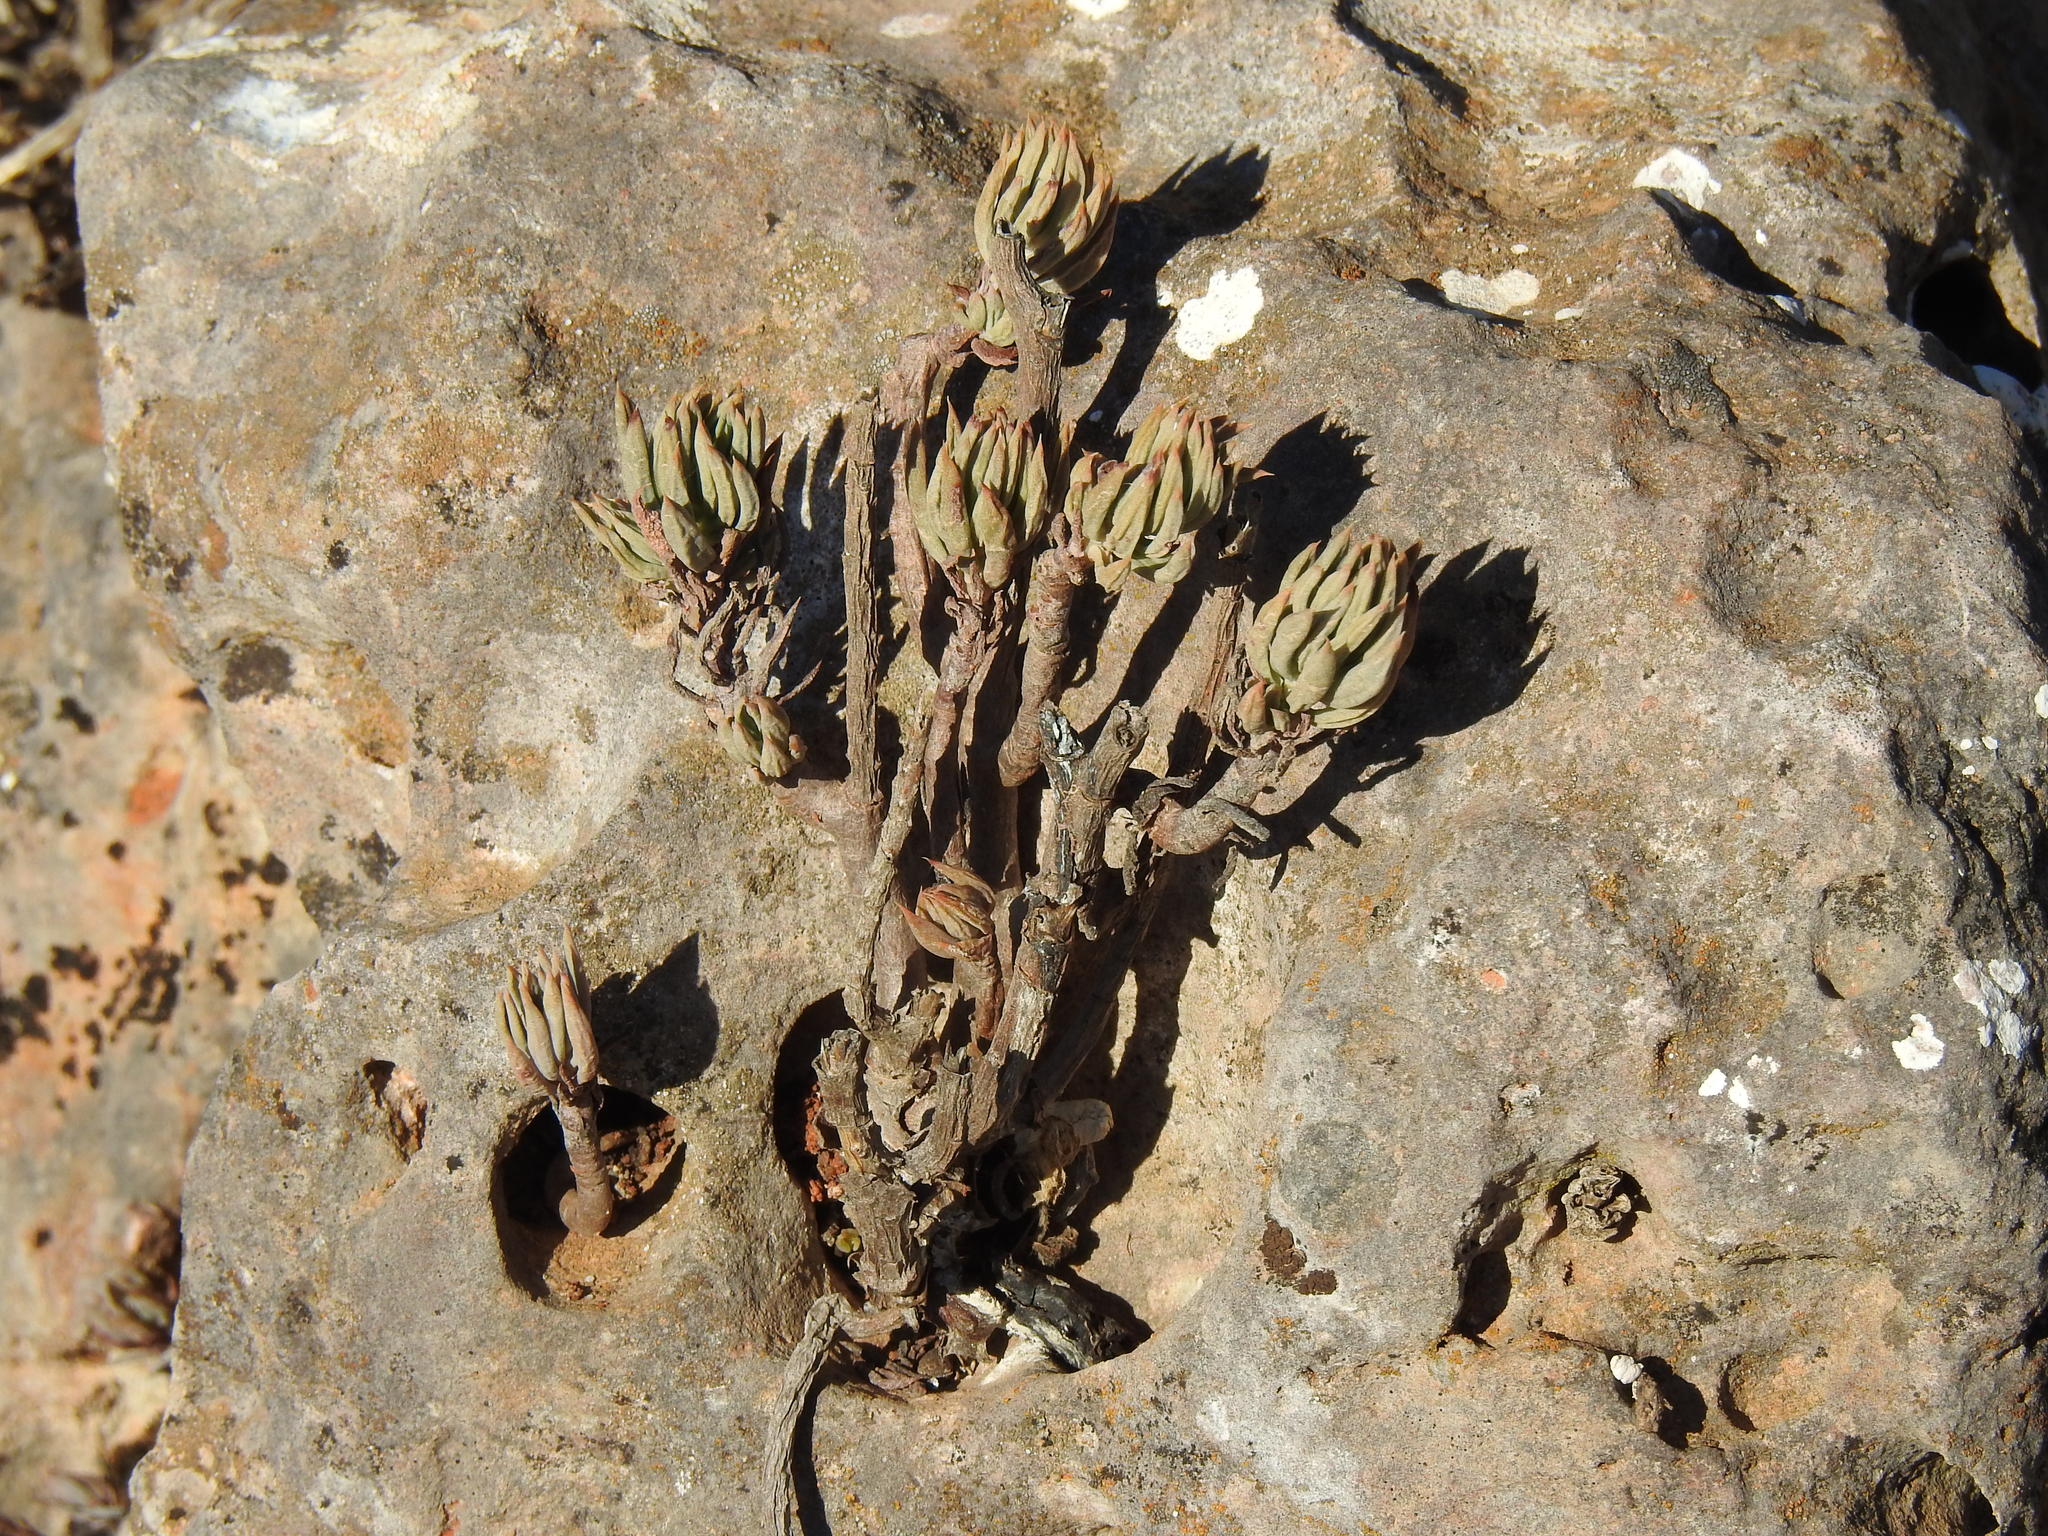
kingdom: Plantae
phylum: Tracheophyta
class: Magnoliopsida
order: Saxifragales
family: Crassulaceae
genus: Petrosedum
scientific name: Petrosedum sediforme
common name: Pale stonecrop
